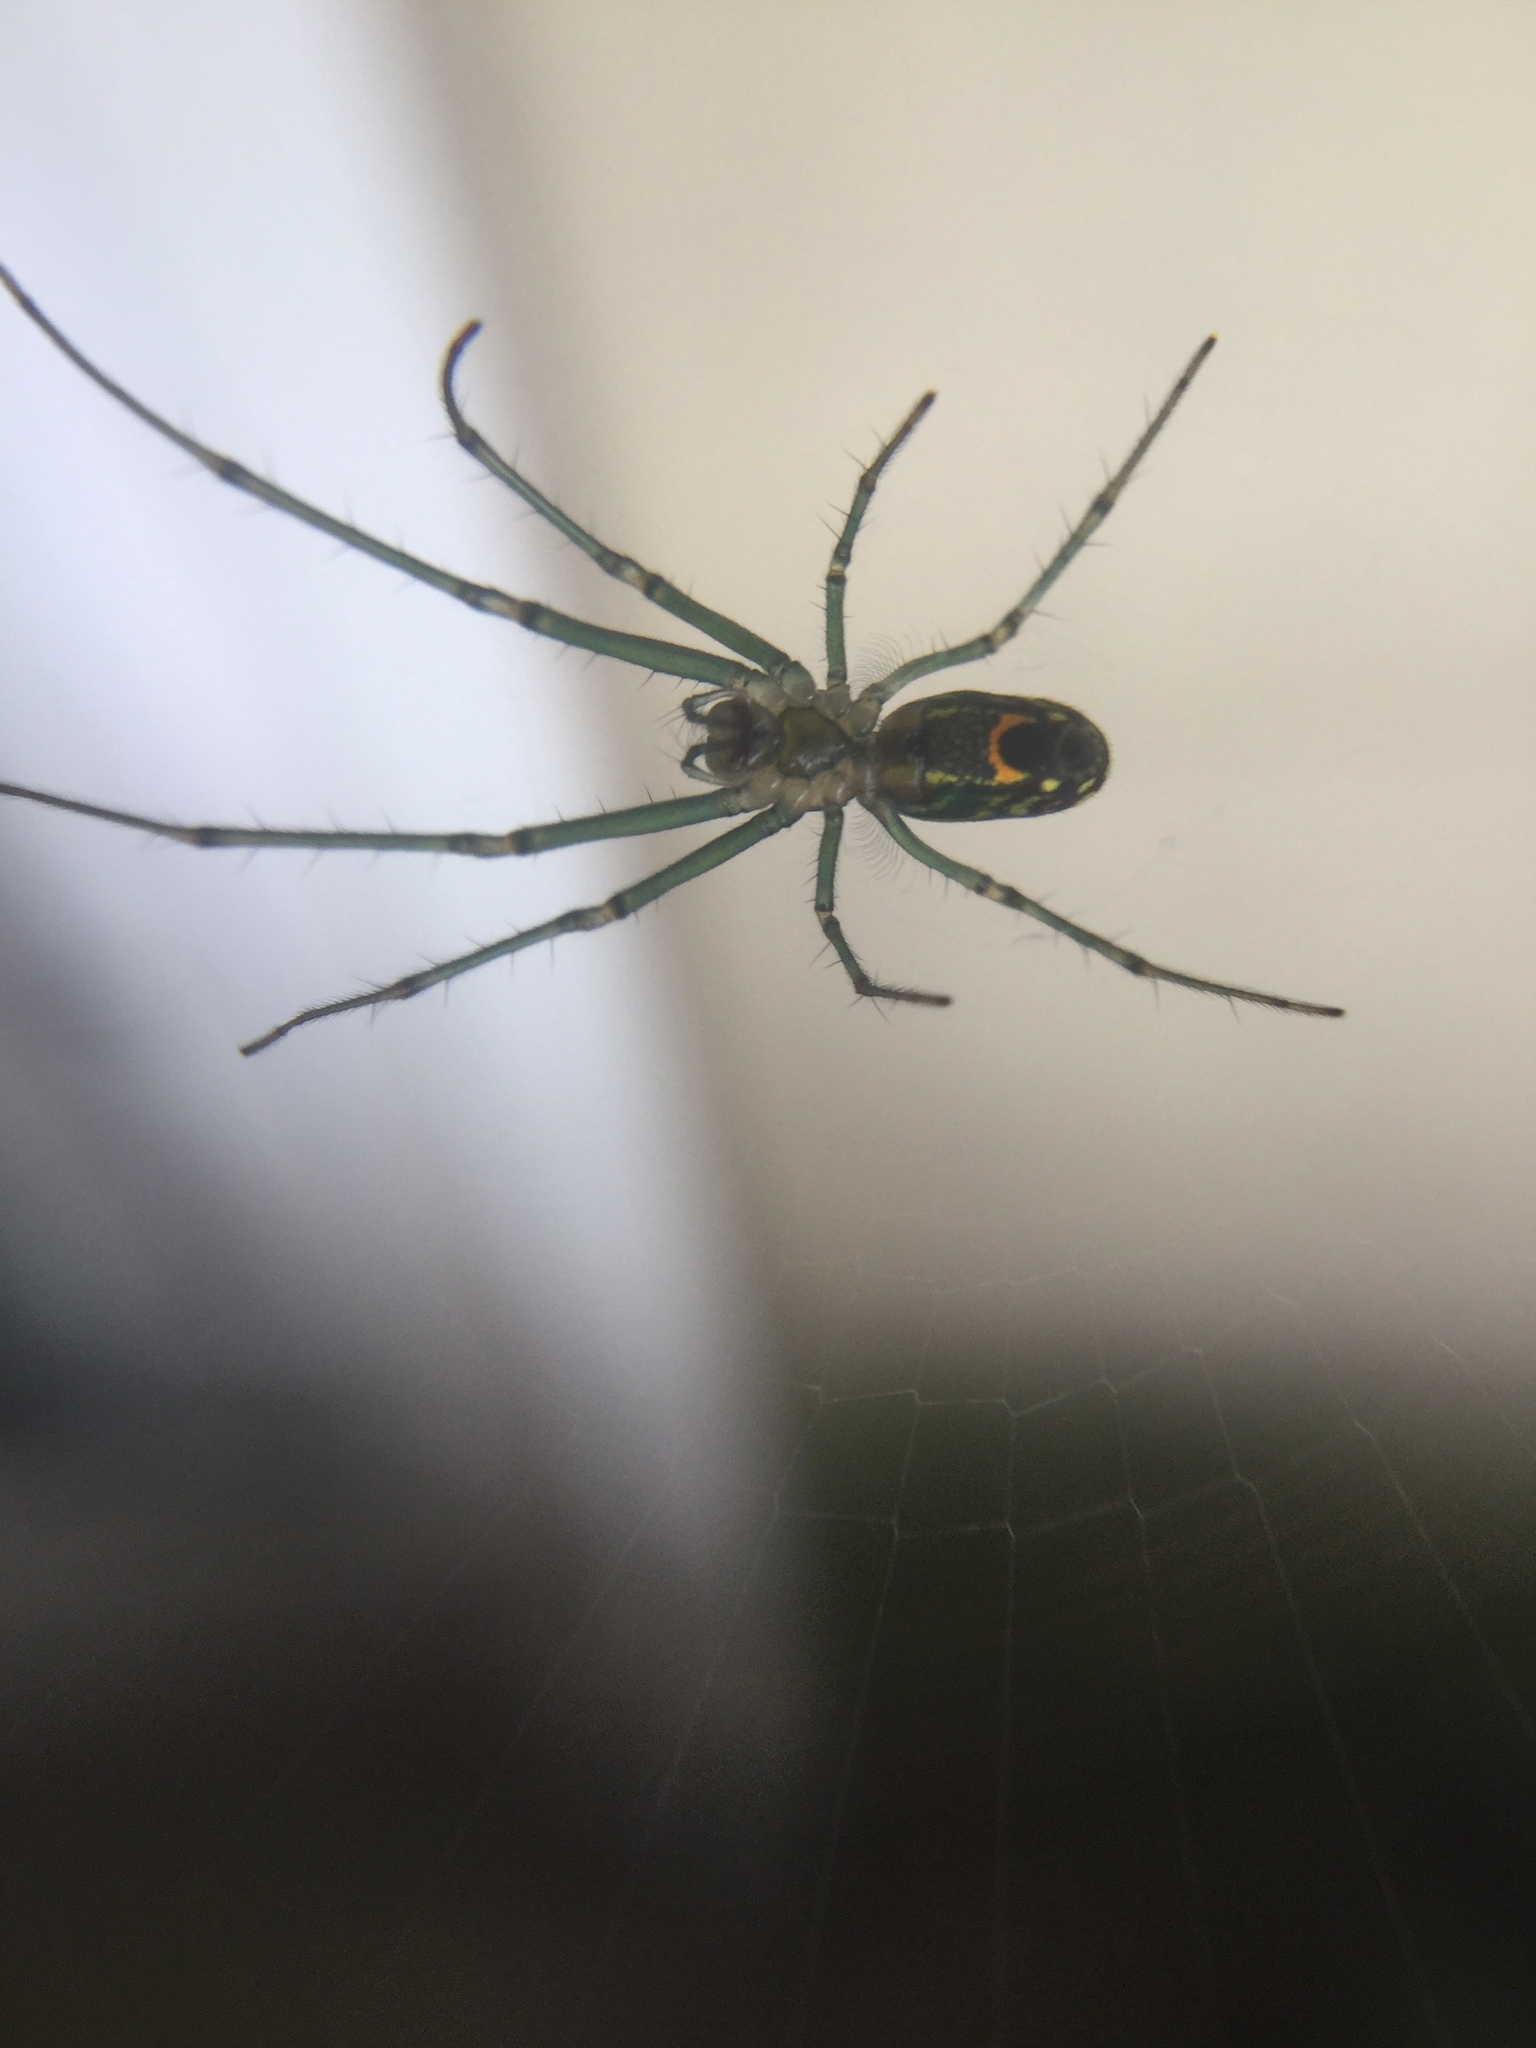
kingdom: Animalia
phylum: Arthropoda
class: Arachnida
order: Araneae
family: Tetragnathidae
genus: Leucauge
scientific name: Leucauge venusta
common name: Longjawed orb weavers
